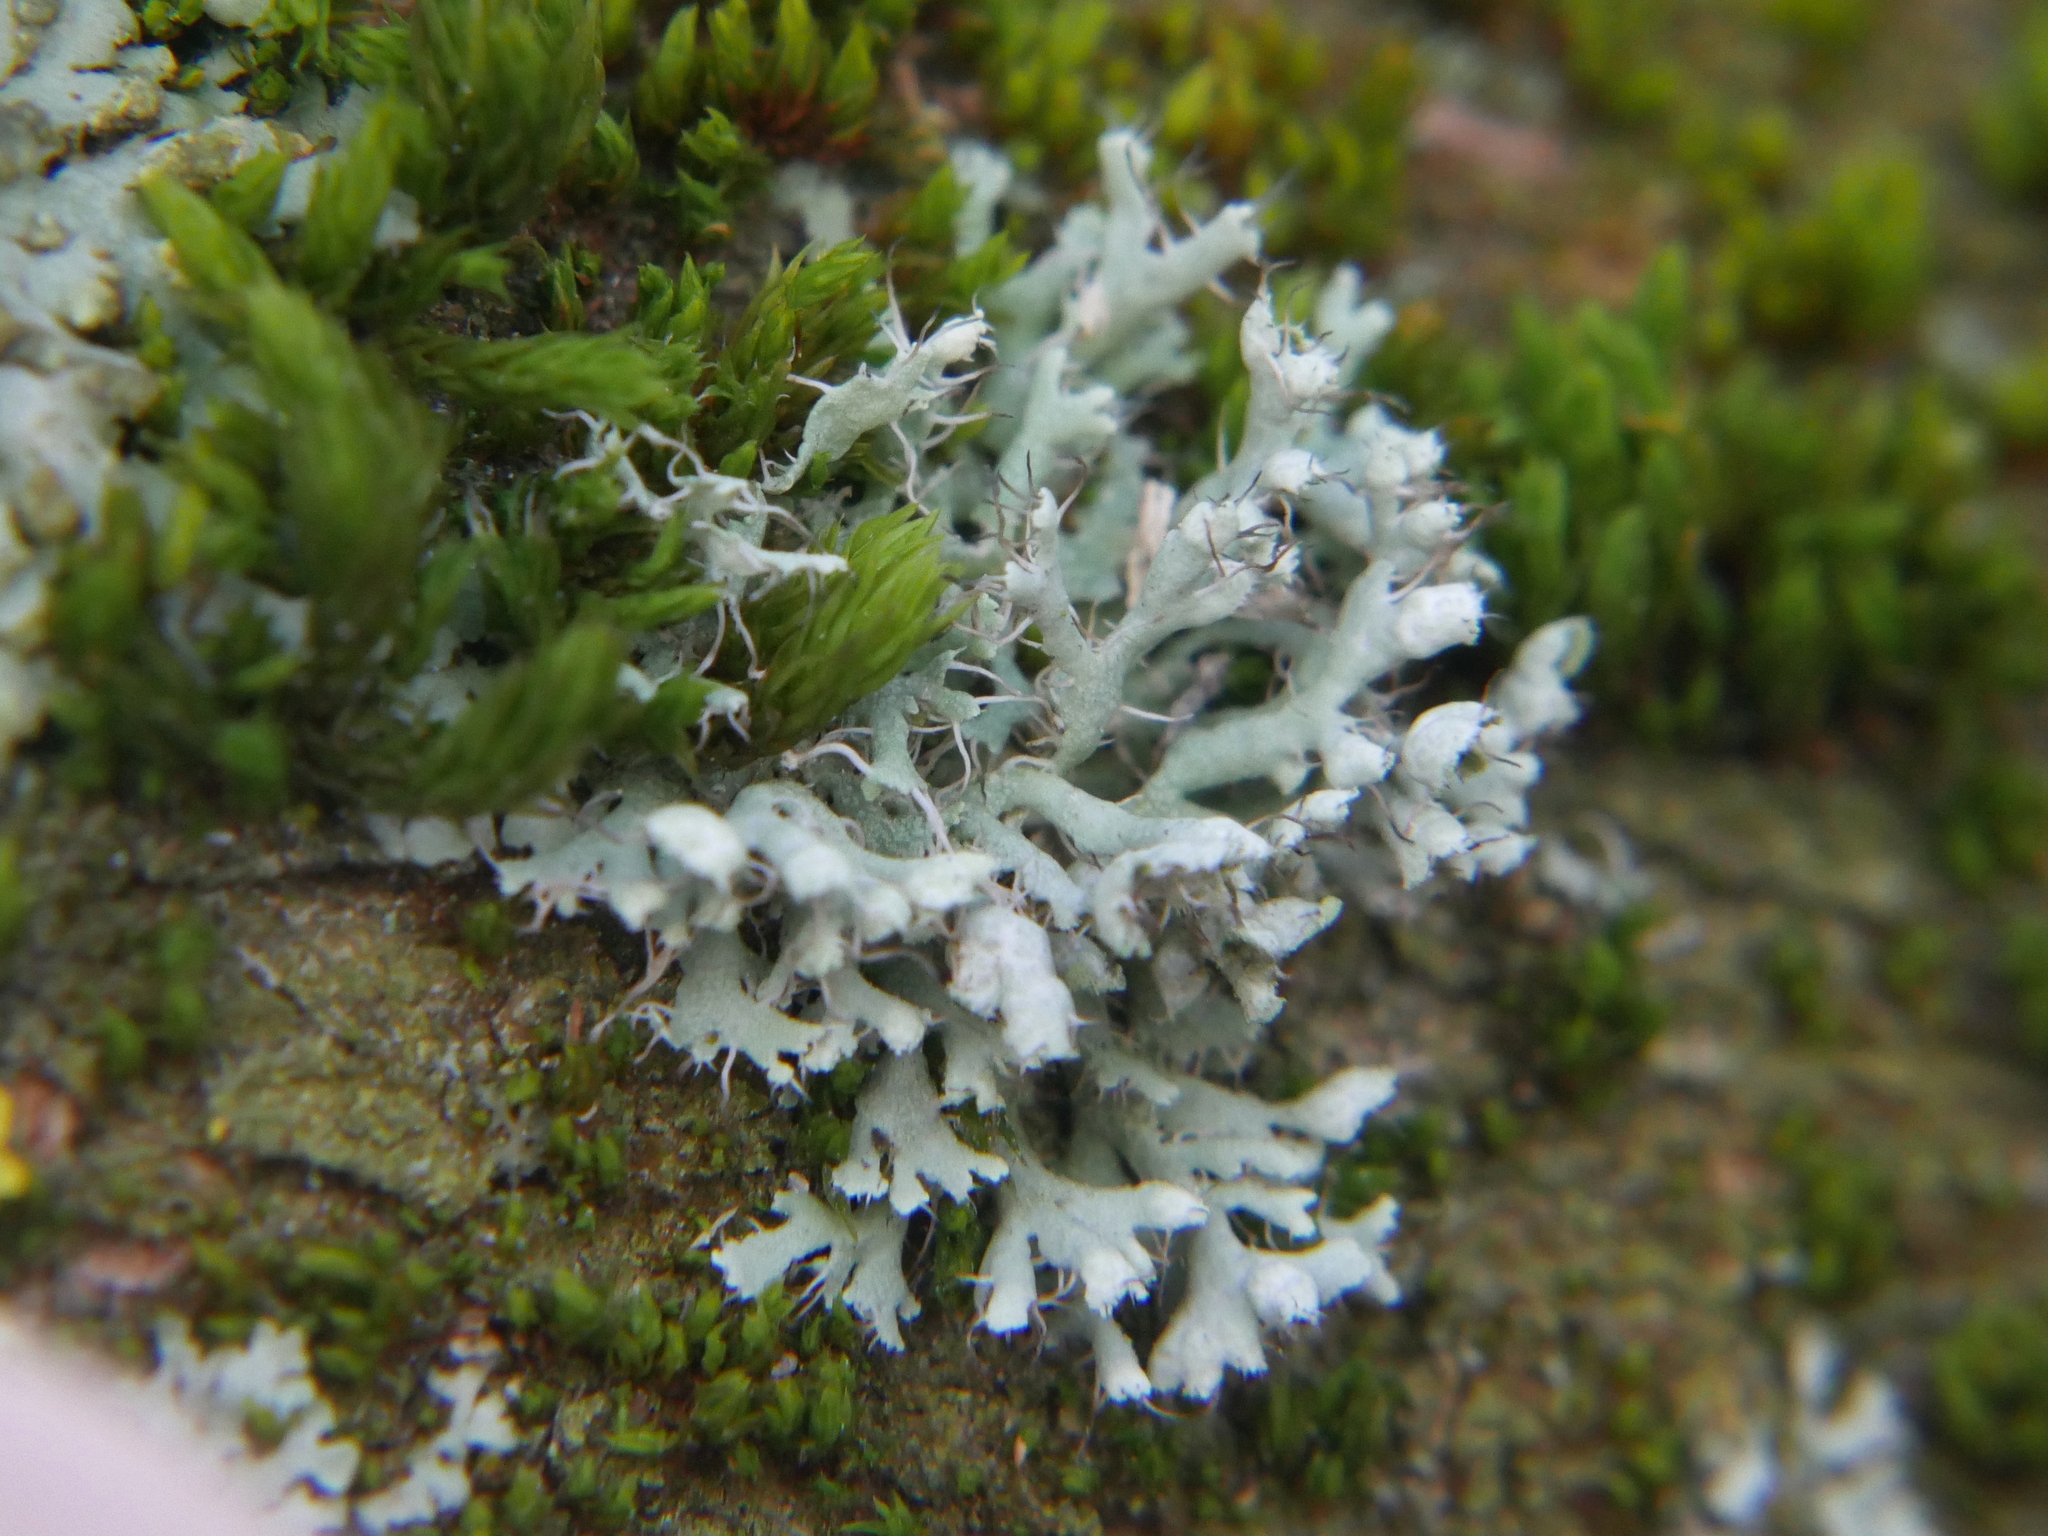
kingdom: Fungi
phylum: Ascomycota
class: Lecanoromycetes
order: Caliciales
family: Physciaceae
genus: Physcia
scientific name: Physcia adscendens
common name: Hooded rosette lichen
